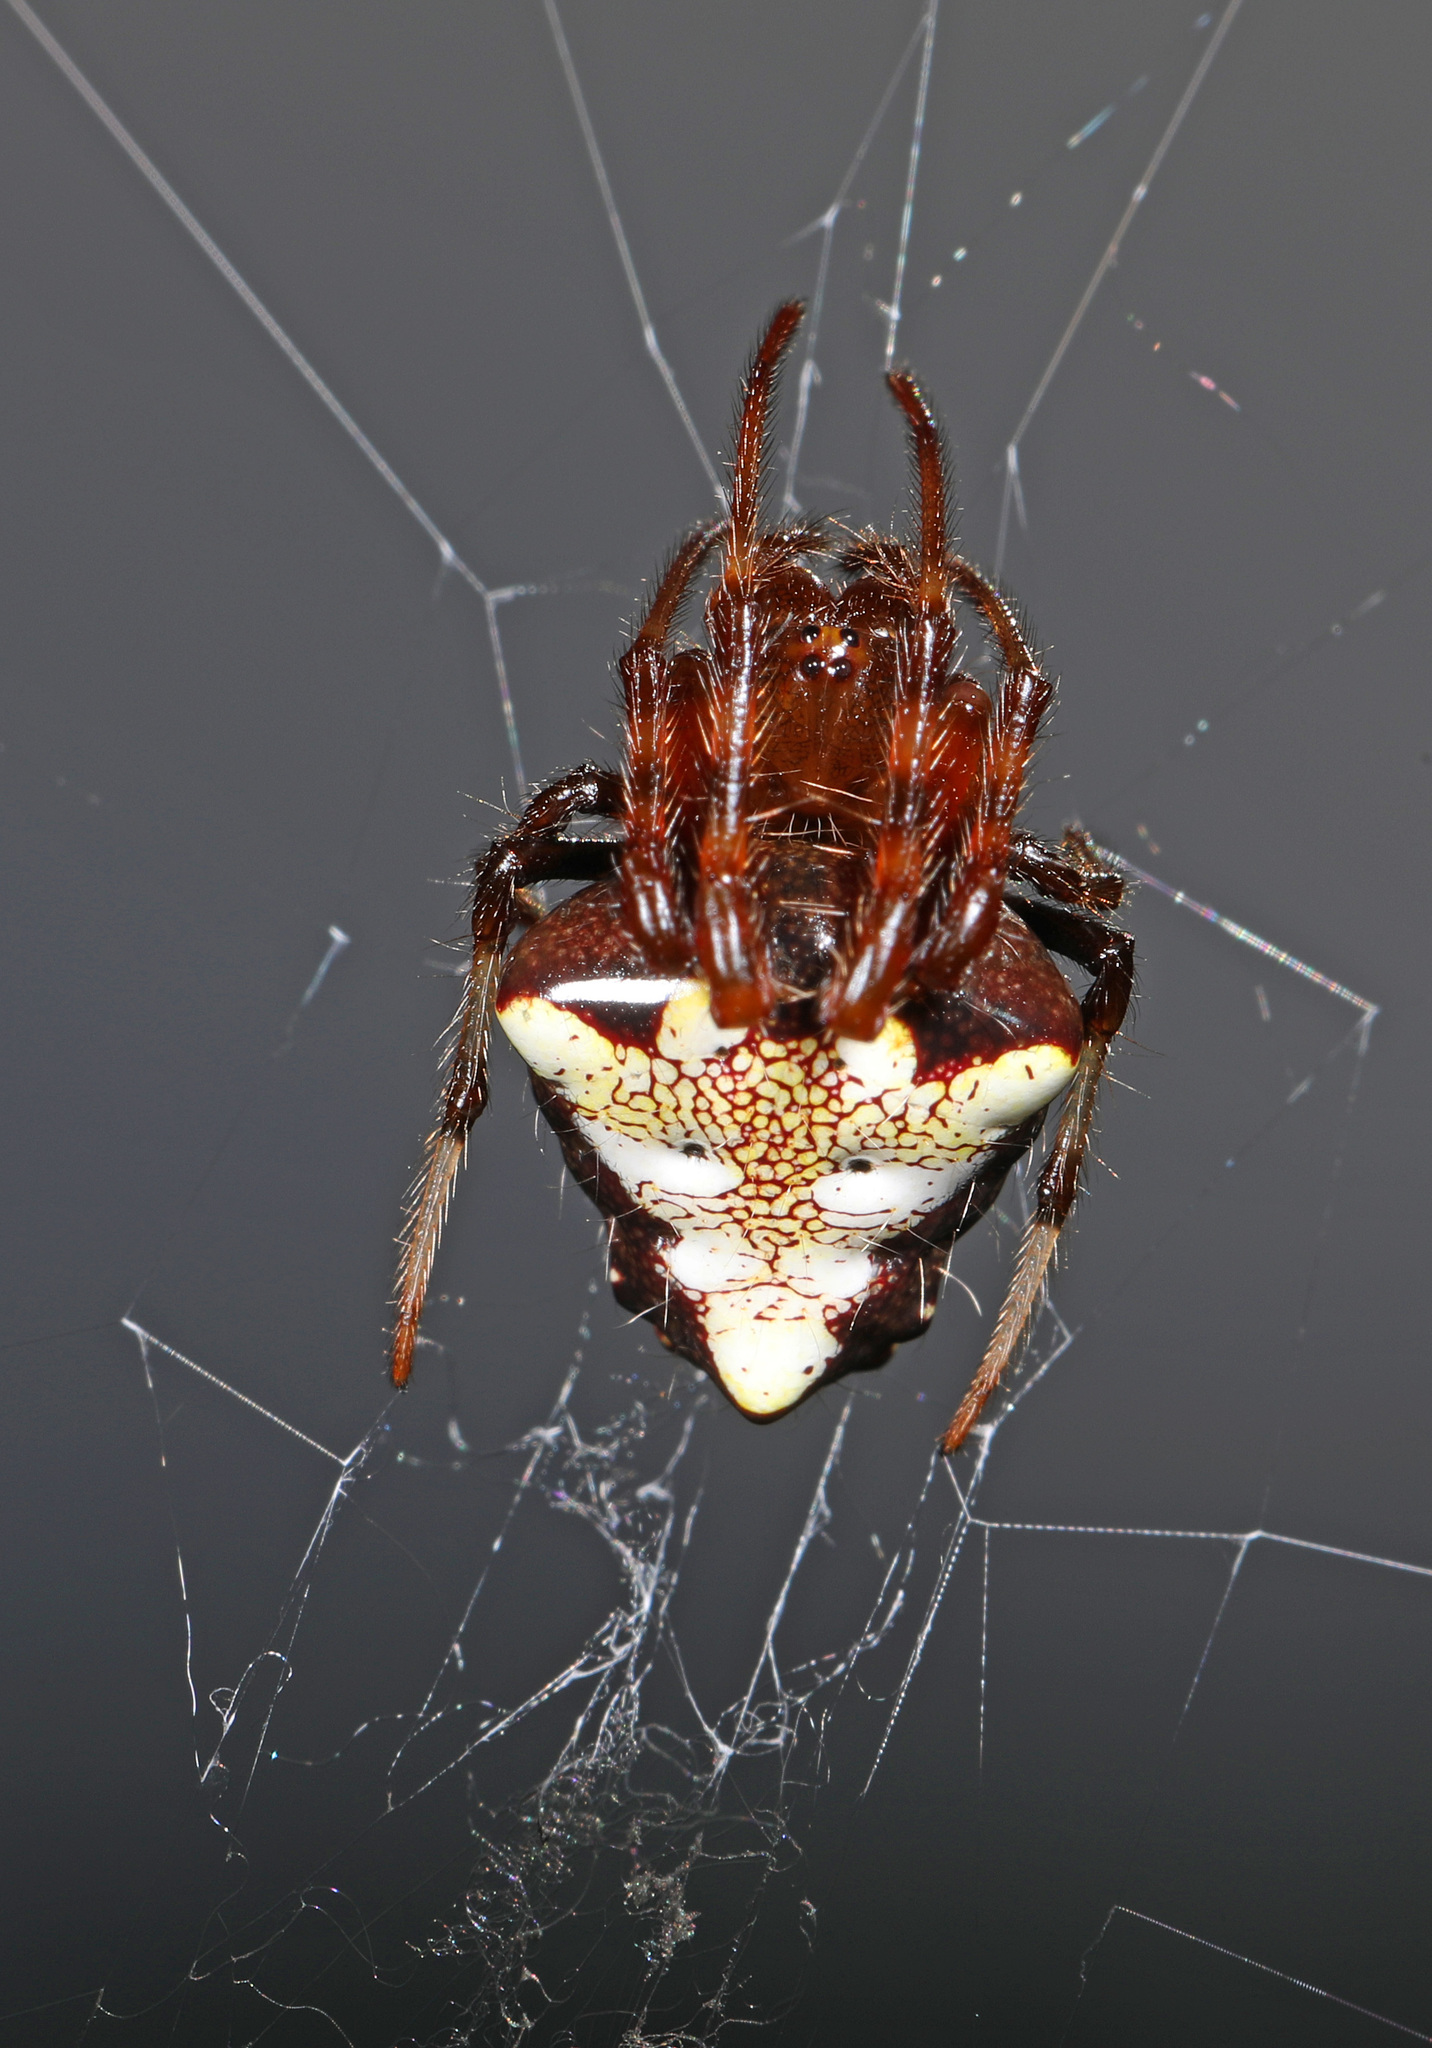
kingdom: Animalia
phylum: Arthropoda
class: Arachnida
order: Araneae
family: Araneidae
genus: Verrucosa
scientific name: Verrucosa arenata
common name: Orb weavers
